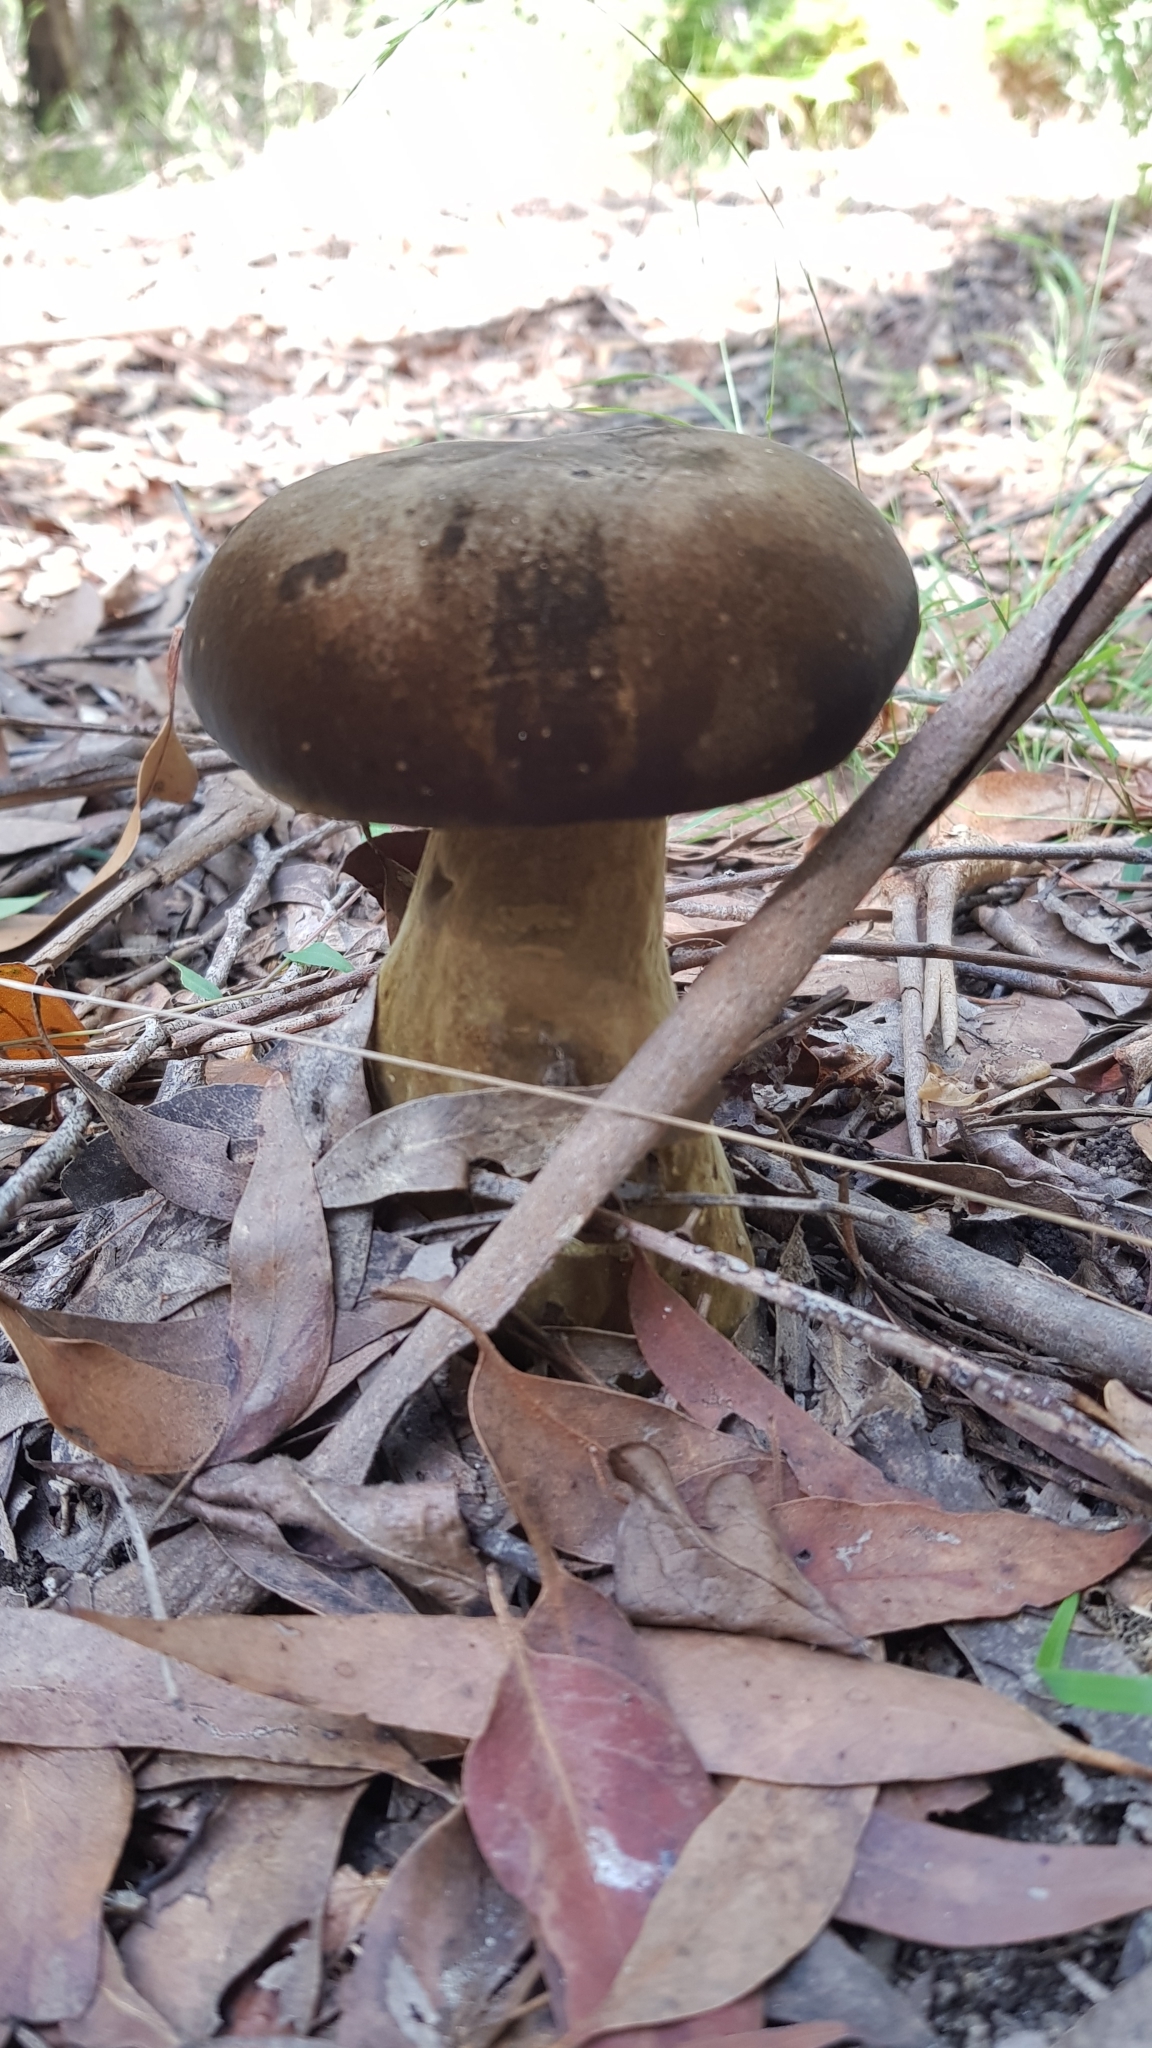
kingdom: Fungi
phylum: Basidiomycota
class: Agaricomycetes
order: Boletales
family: Boletinellaceae
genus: Phlebopus
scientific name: Phlebopus marginatus
